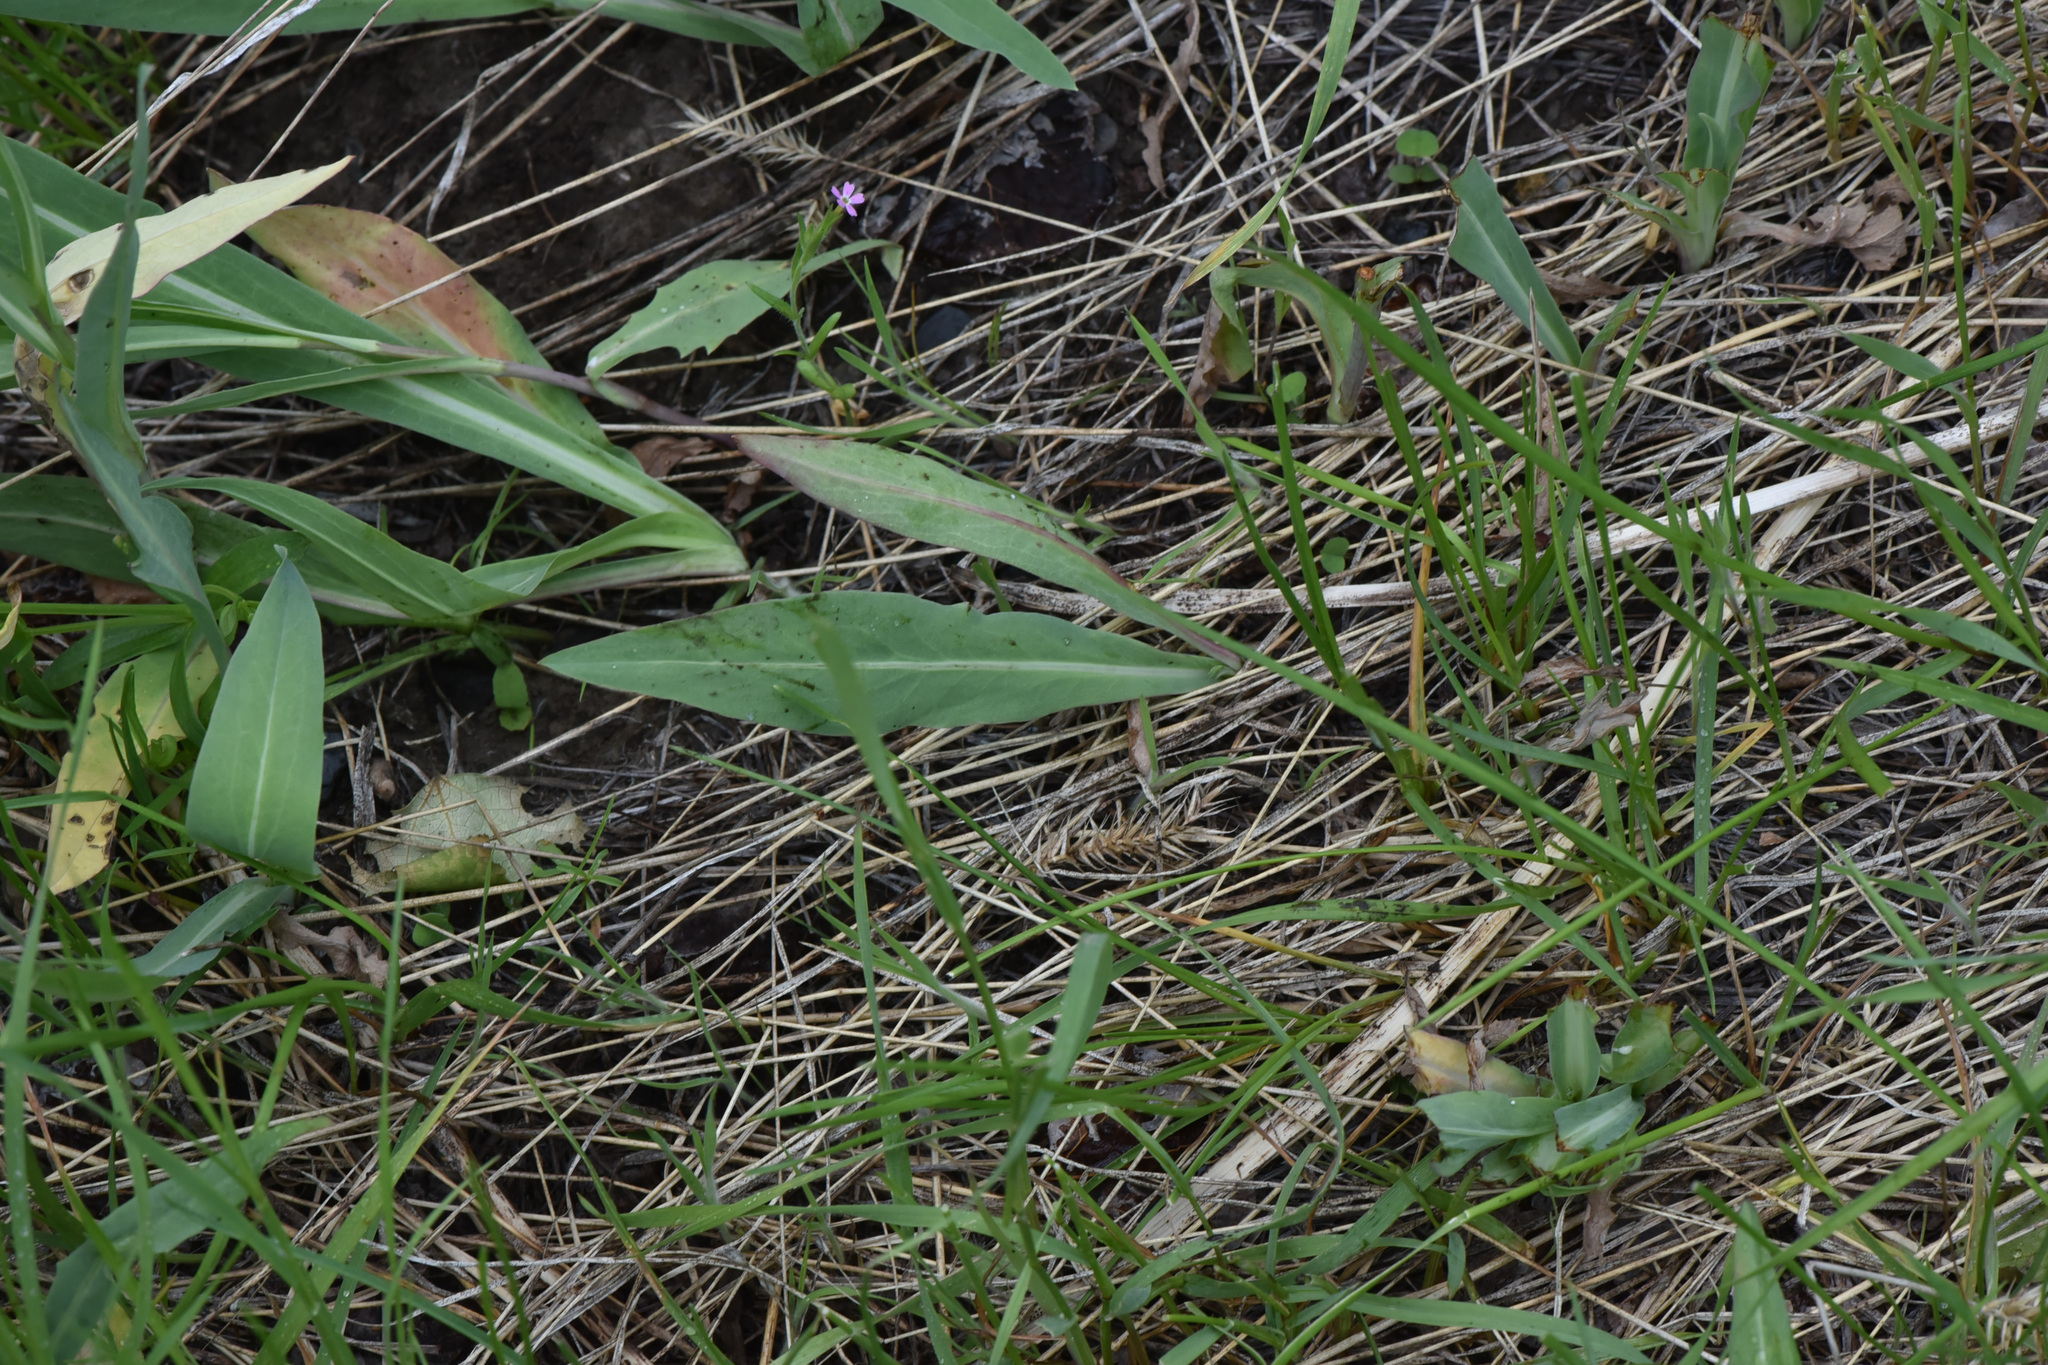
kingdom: Plantae
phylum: Tracheophyta
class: Magnoliopsida
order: Ericales
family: Polemoniaceae
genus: Phlox
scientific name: Phlox gracilis
